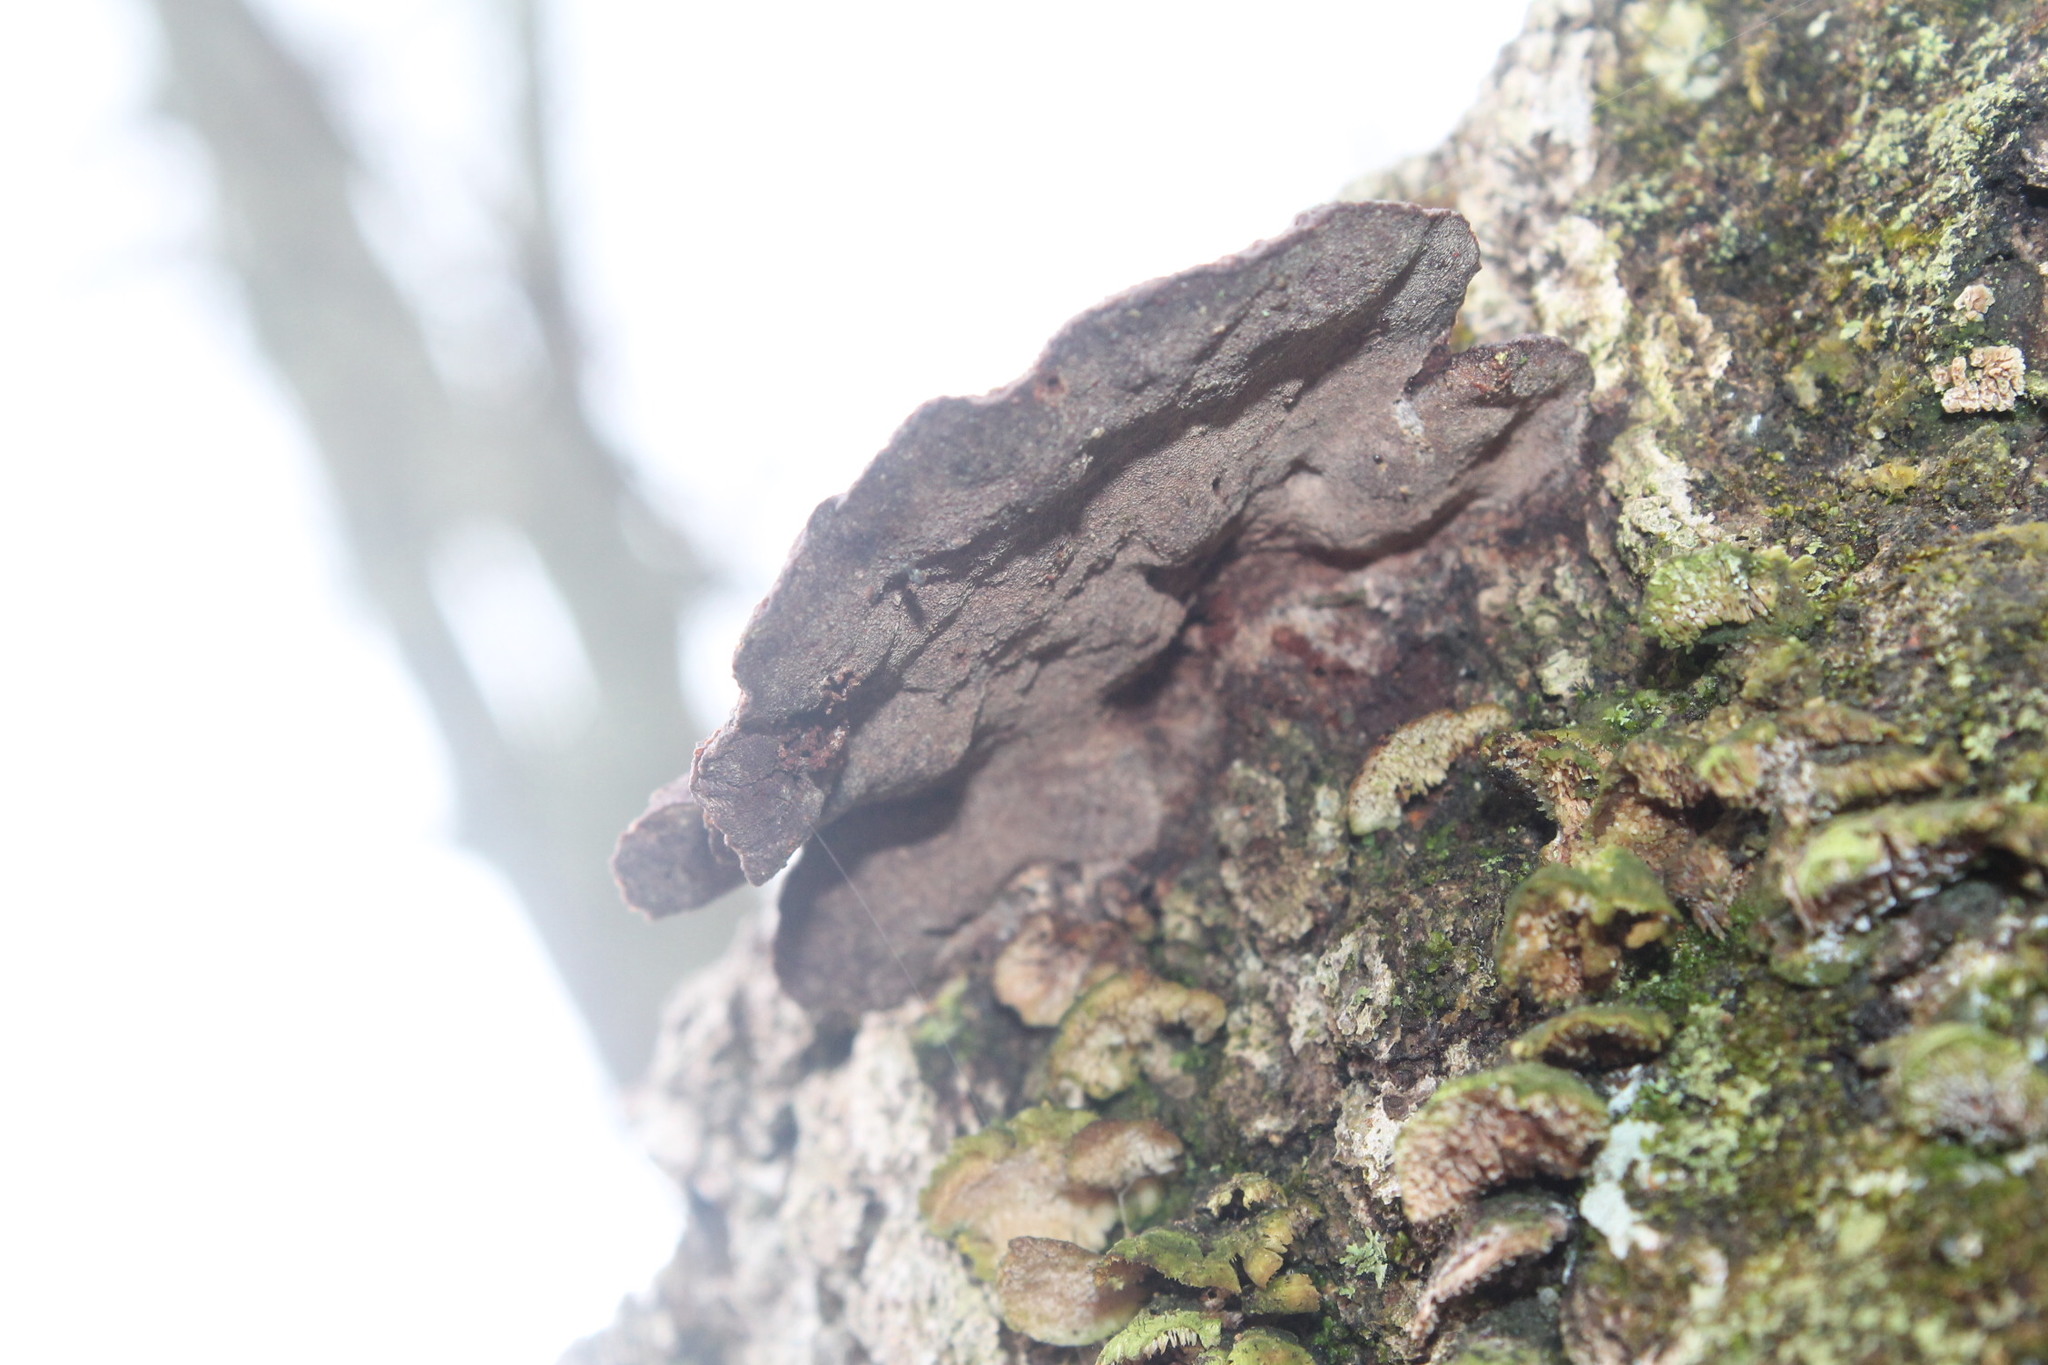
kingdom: Fungi
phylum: Basidiomycota
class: Agaricomycetes
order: Hymenochaetales
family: Hymenochaetaceae
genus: Phellinus
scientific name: Phellinus gilvus
